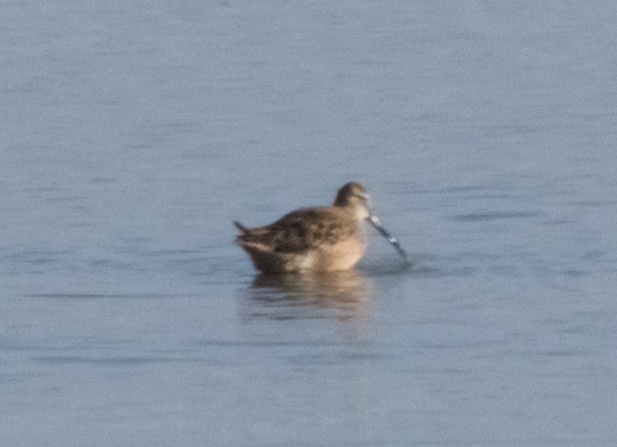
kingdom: Animalia
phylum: Chordata
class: Aves
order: Charadriiformes
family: Scolopacidae
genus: Limnodromus
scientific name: Limnodromus scolopaceus
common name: Long-billed dowitcher
